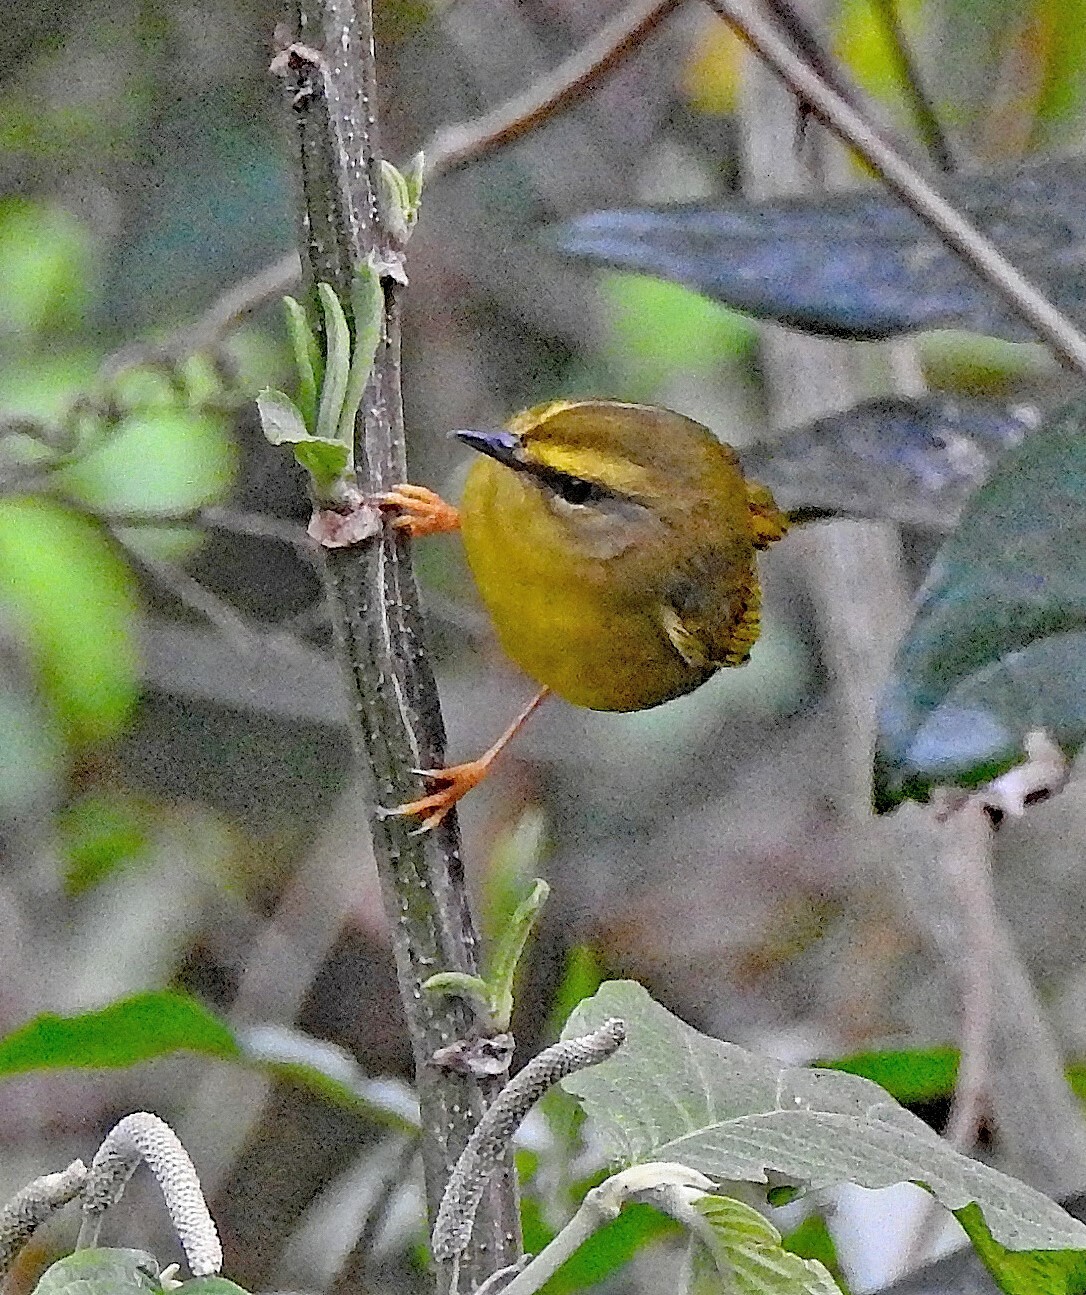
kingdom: Animalia
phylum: Chordata
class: Aves
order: Passeriformes
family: Parulidae
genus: Myiothlypis
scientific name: Myiothlypis signata
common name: Pale-legged warbler
